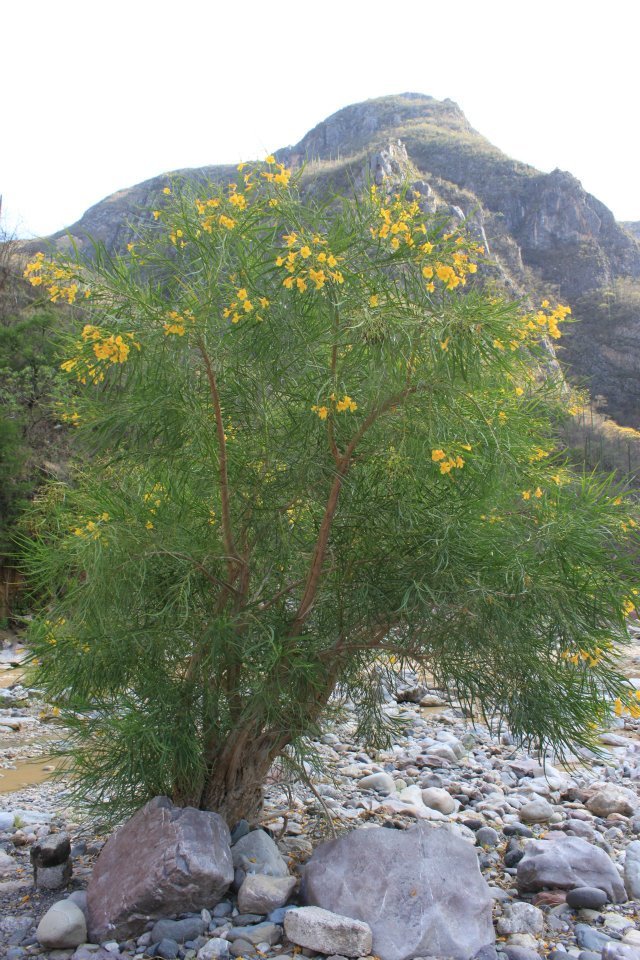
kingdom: Plantae
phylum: Tracheophyta
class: Magnoliopsida
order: Lamiales
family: Bignoniaceae
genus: Astianthus
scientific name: Astianthus viminalis
